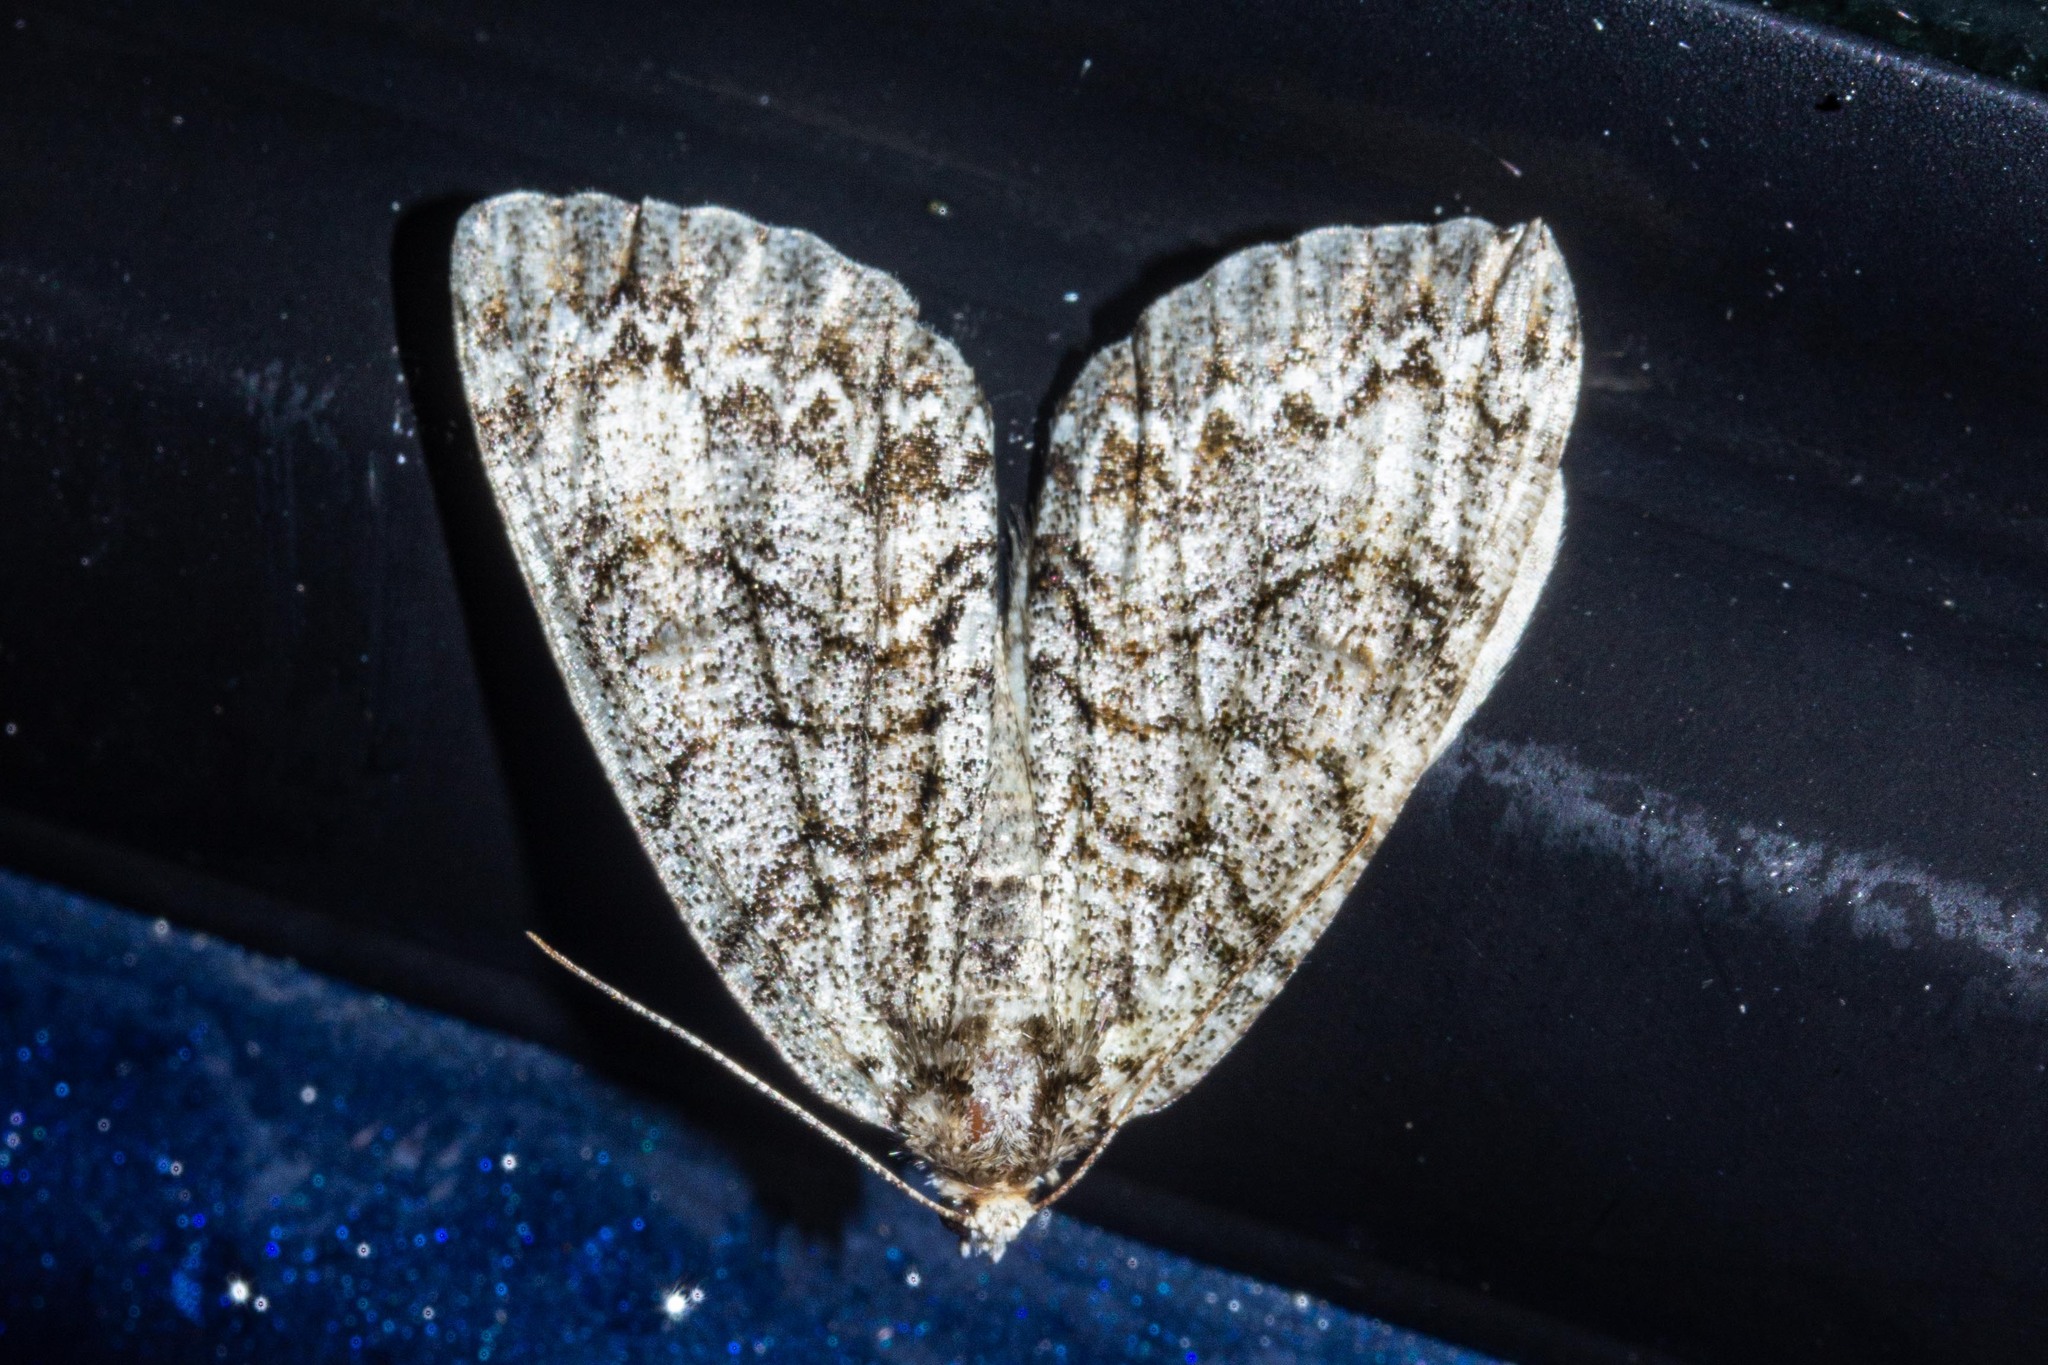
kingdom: Animalia
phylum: Arthropoda
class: Insecta
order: Lepidoptera
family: Geometridae
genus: Pseudocoremia
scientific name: Pseudocoremia suavis
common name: Common forest looper
